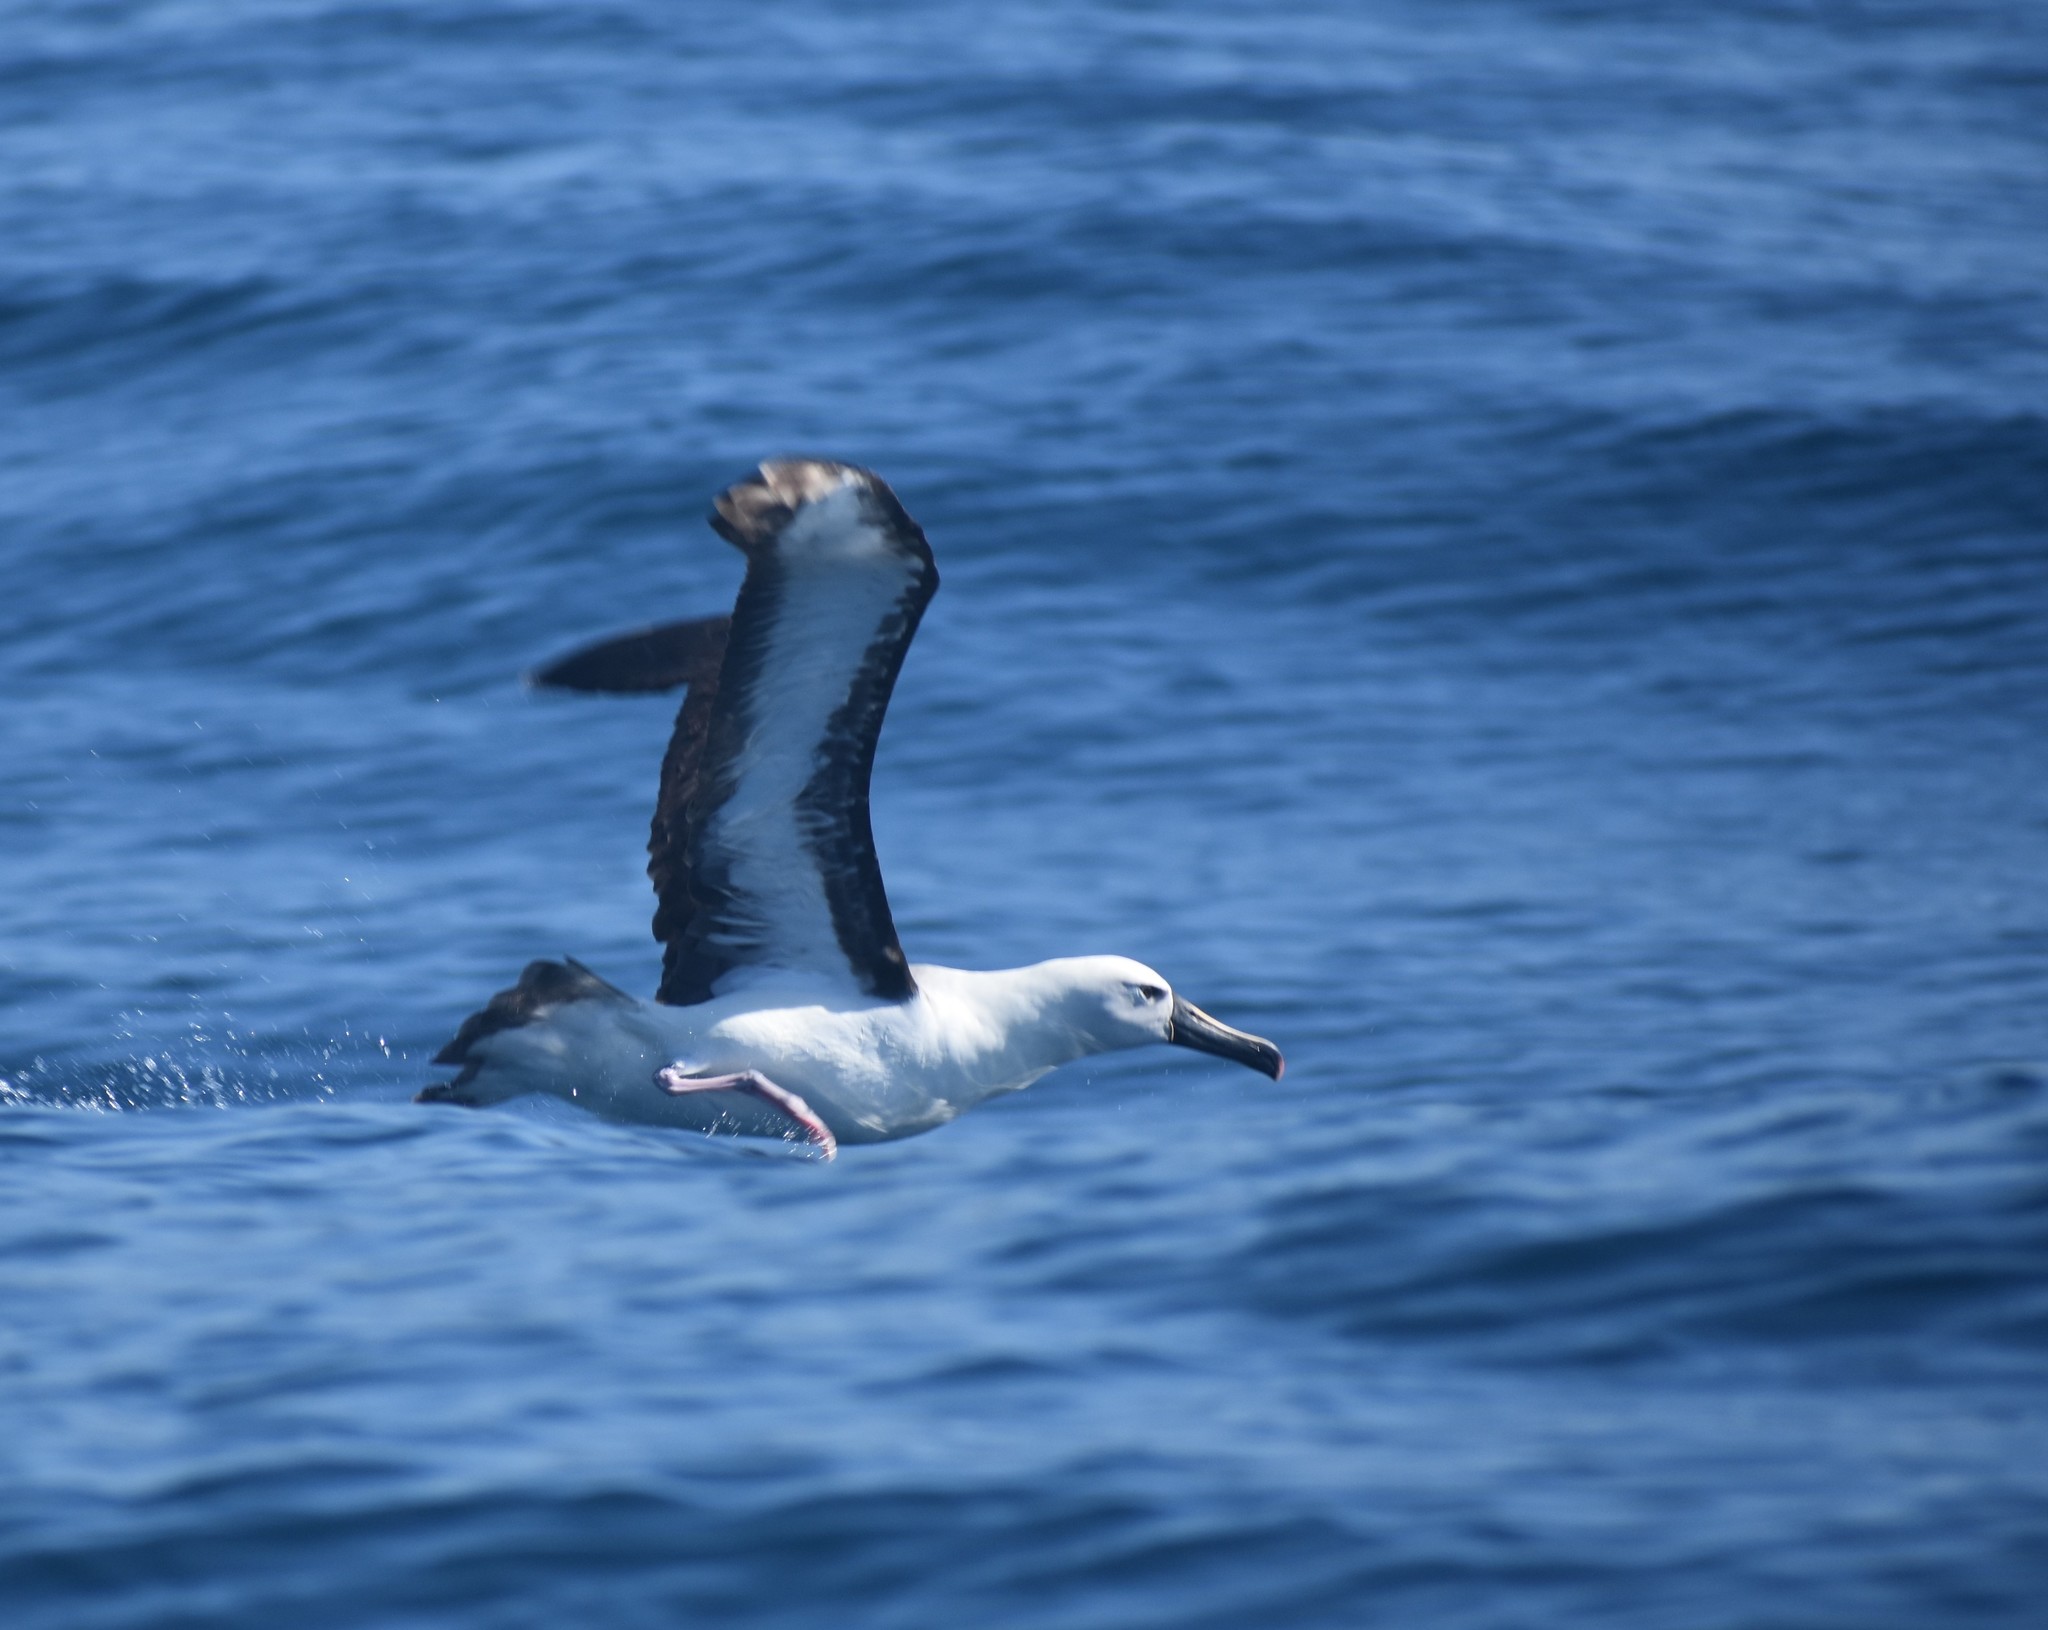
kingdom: Animalia
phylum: Chordata
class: Aves
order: Procellariiformes
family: Diomedeidae
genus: Thalassarche
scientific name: Thalassarche carteri
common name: Indian yellow-nosed albatross
